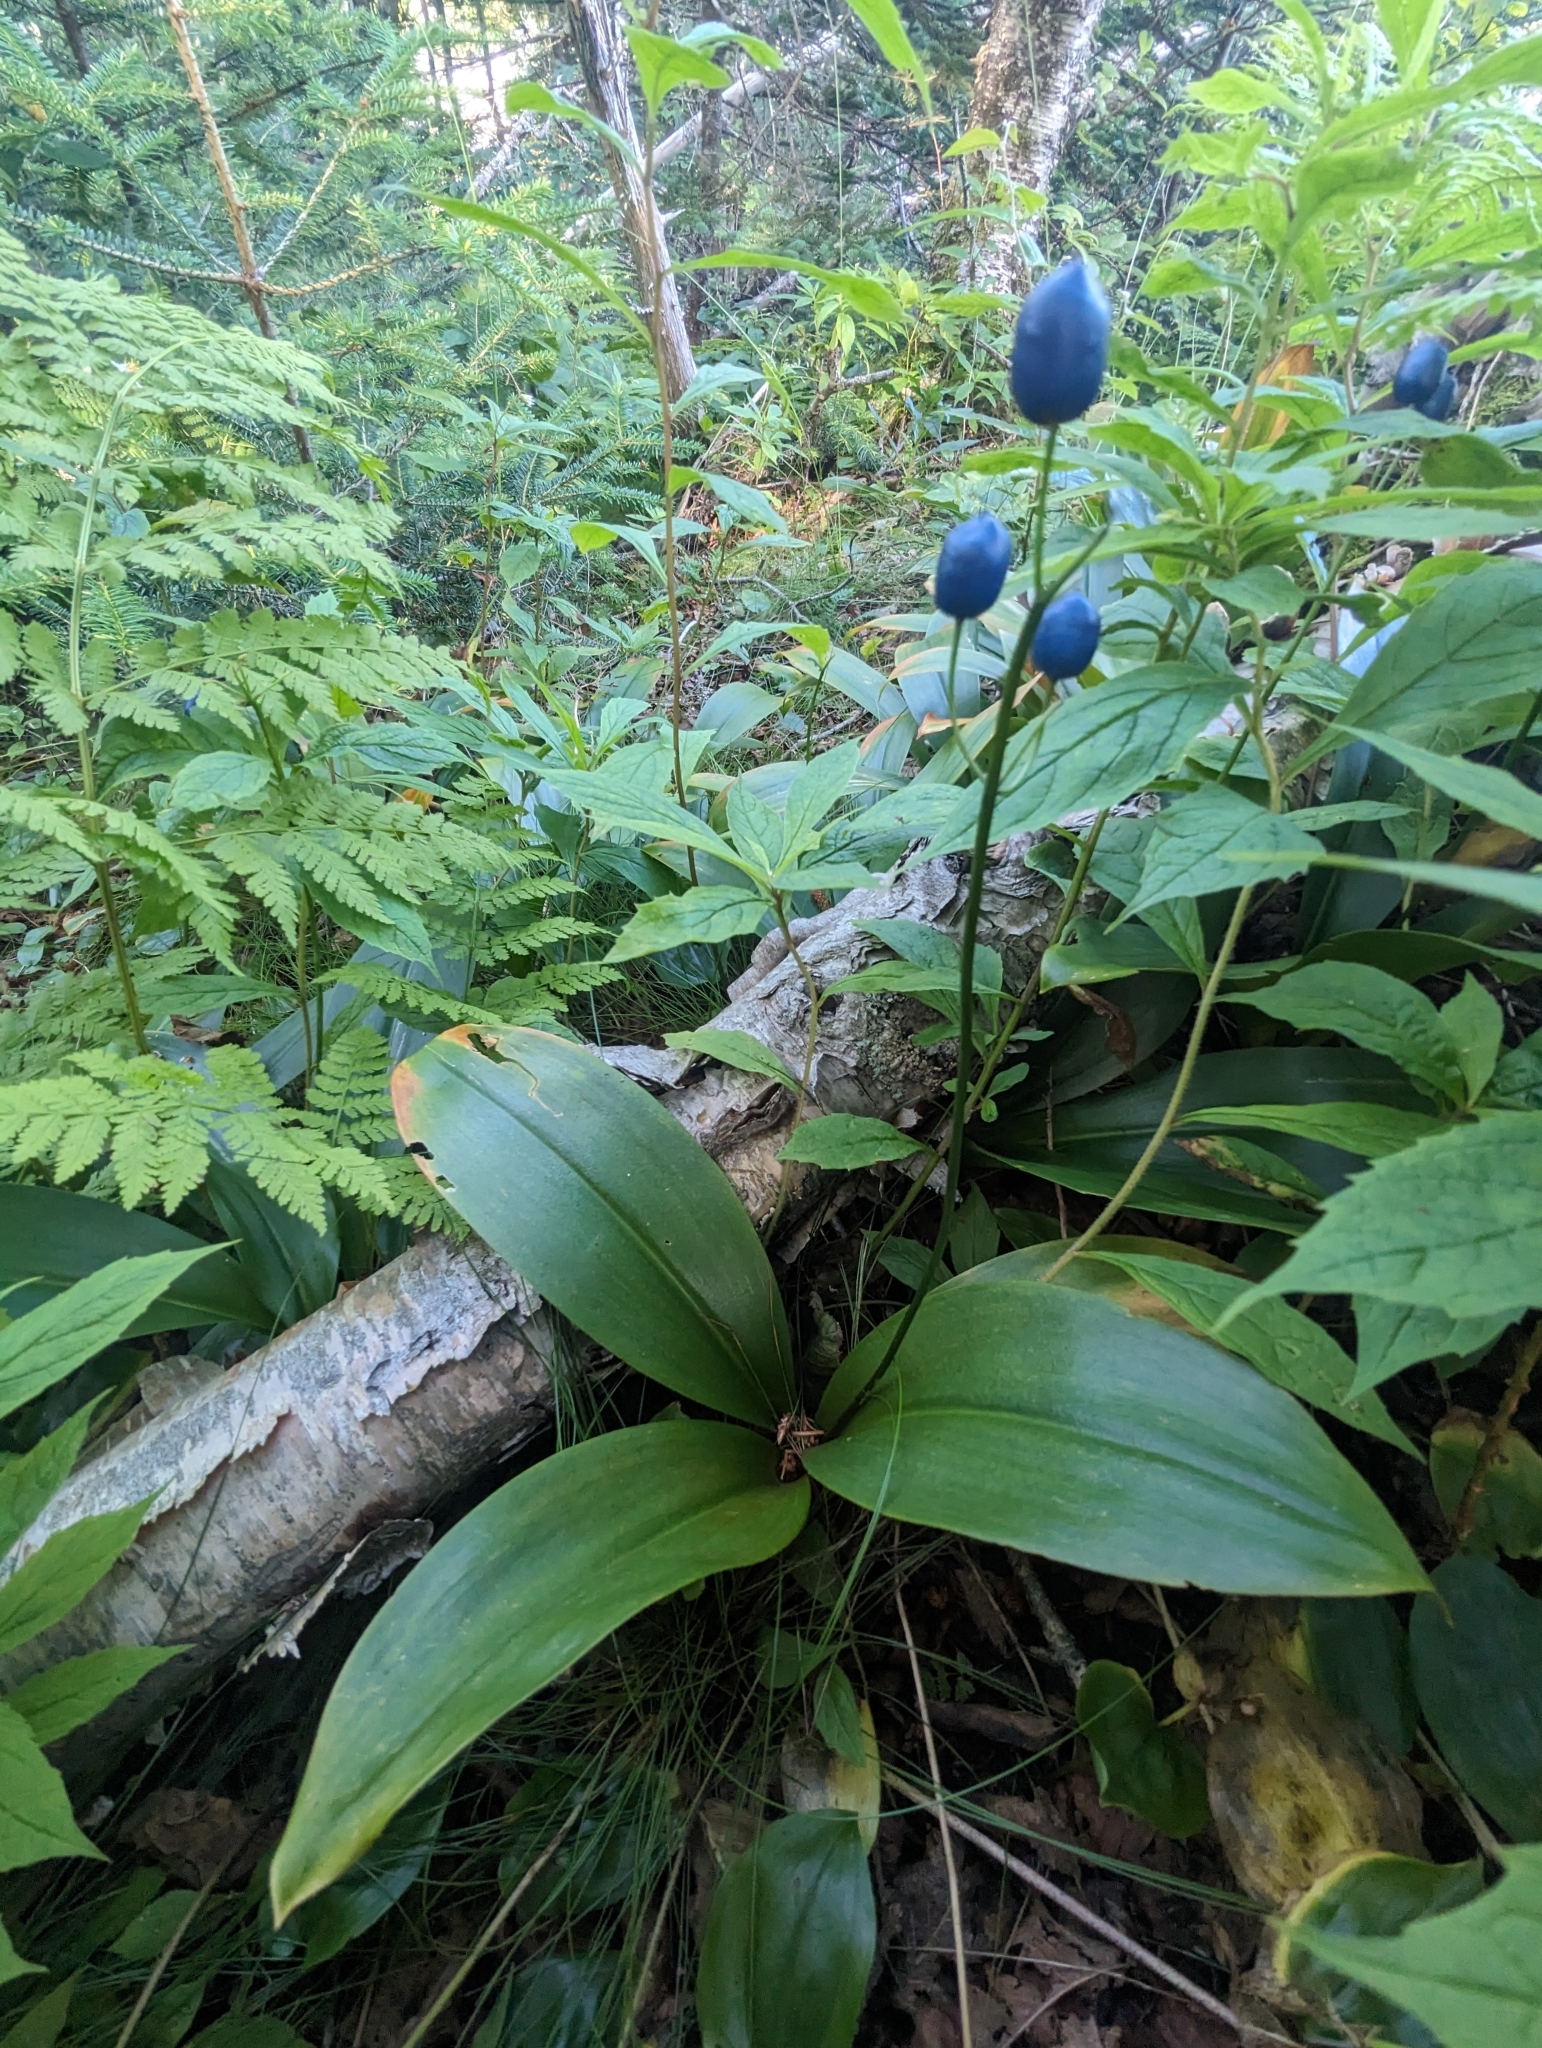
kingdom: Plantae
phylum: Tracheophyta
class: Liliopsida
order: Liliales
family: Liliaceae
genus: Clintonia
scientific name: Clintonia borealis
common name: Yellow clintonia
